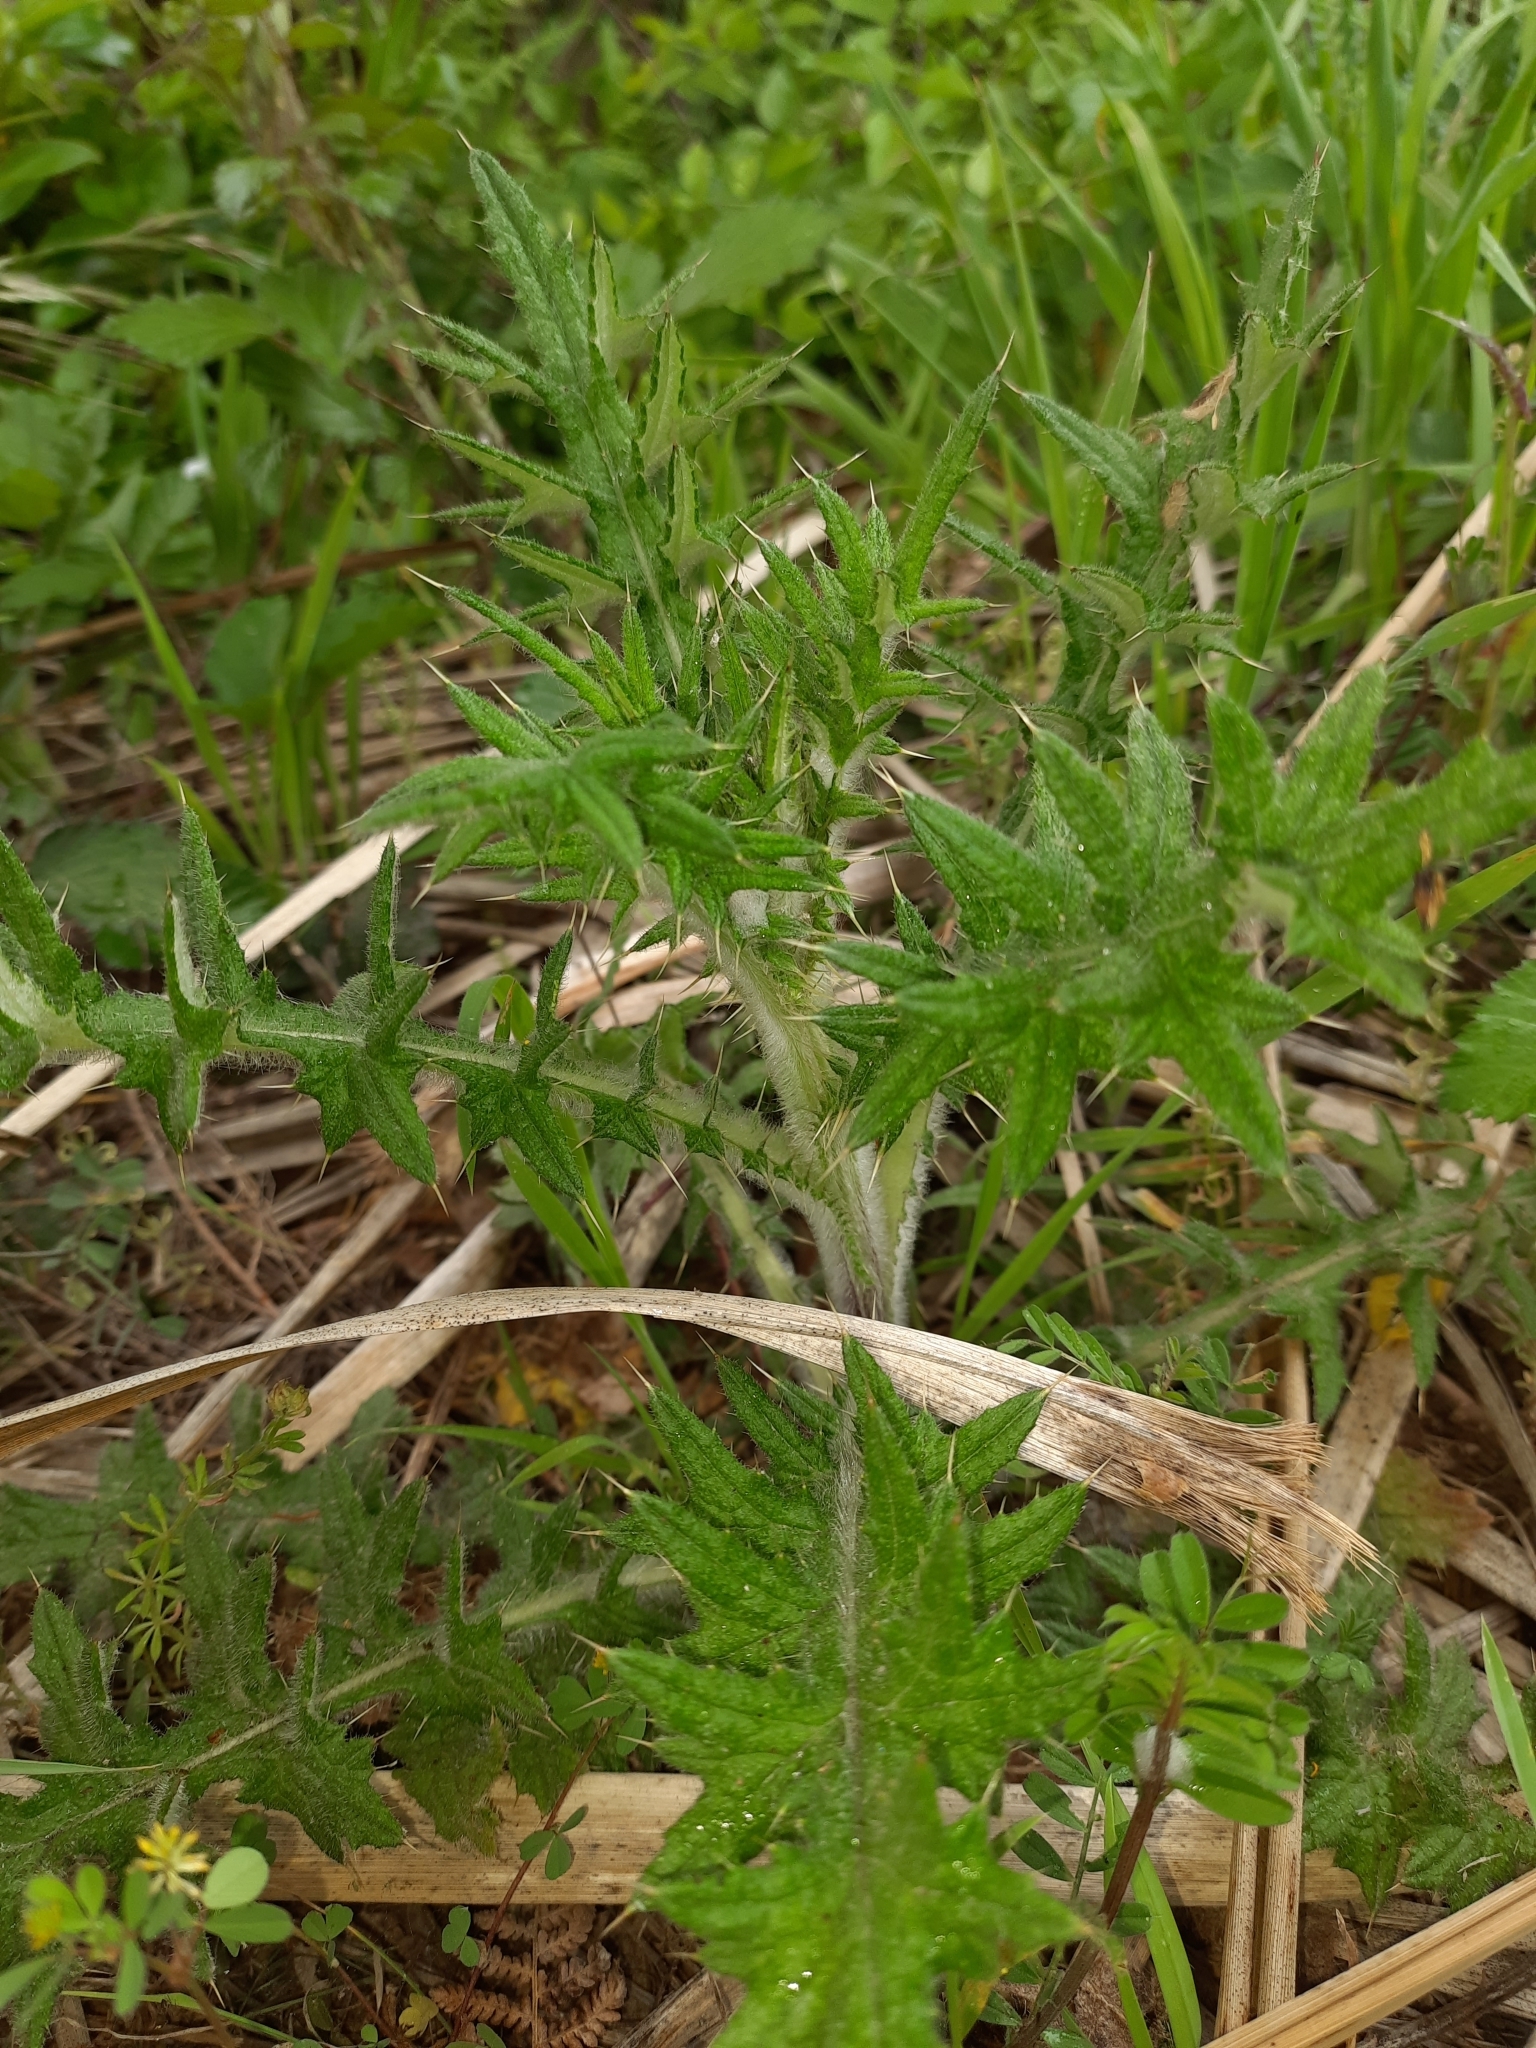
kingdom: Plantae
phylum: Tracheophyta
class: Magnoliopsida
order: Asterales
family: Asteraceae
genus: Cirsium
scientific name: Cirsium vulgare
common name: Bull thistle
